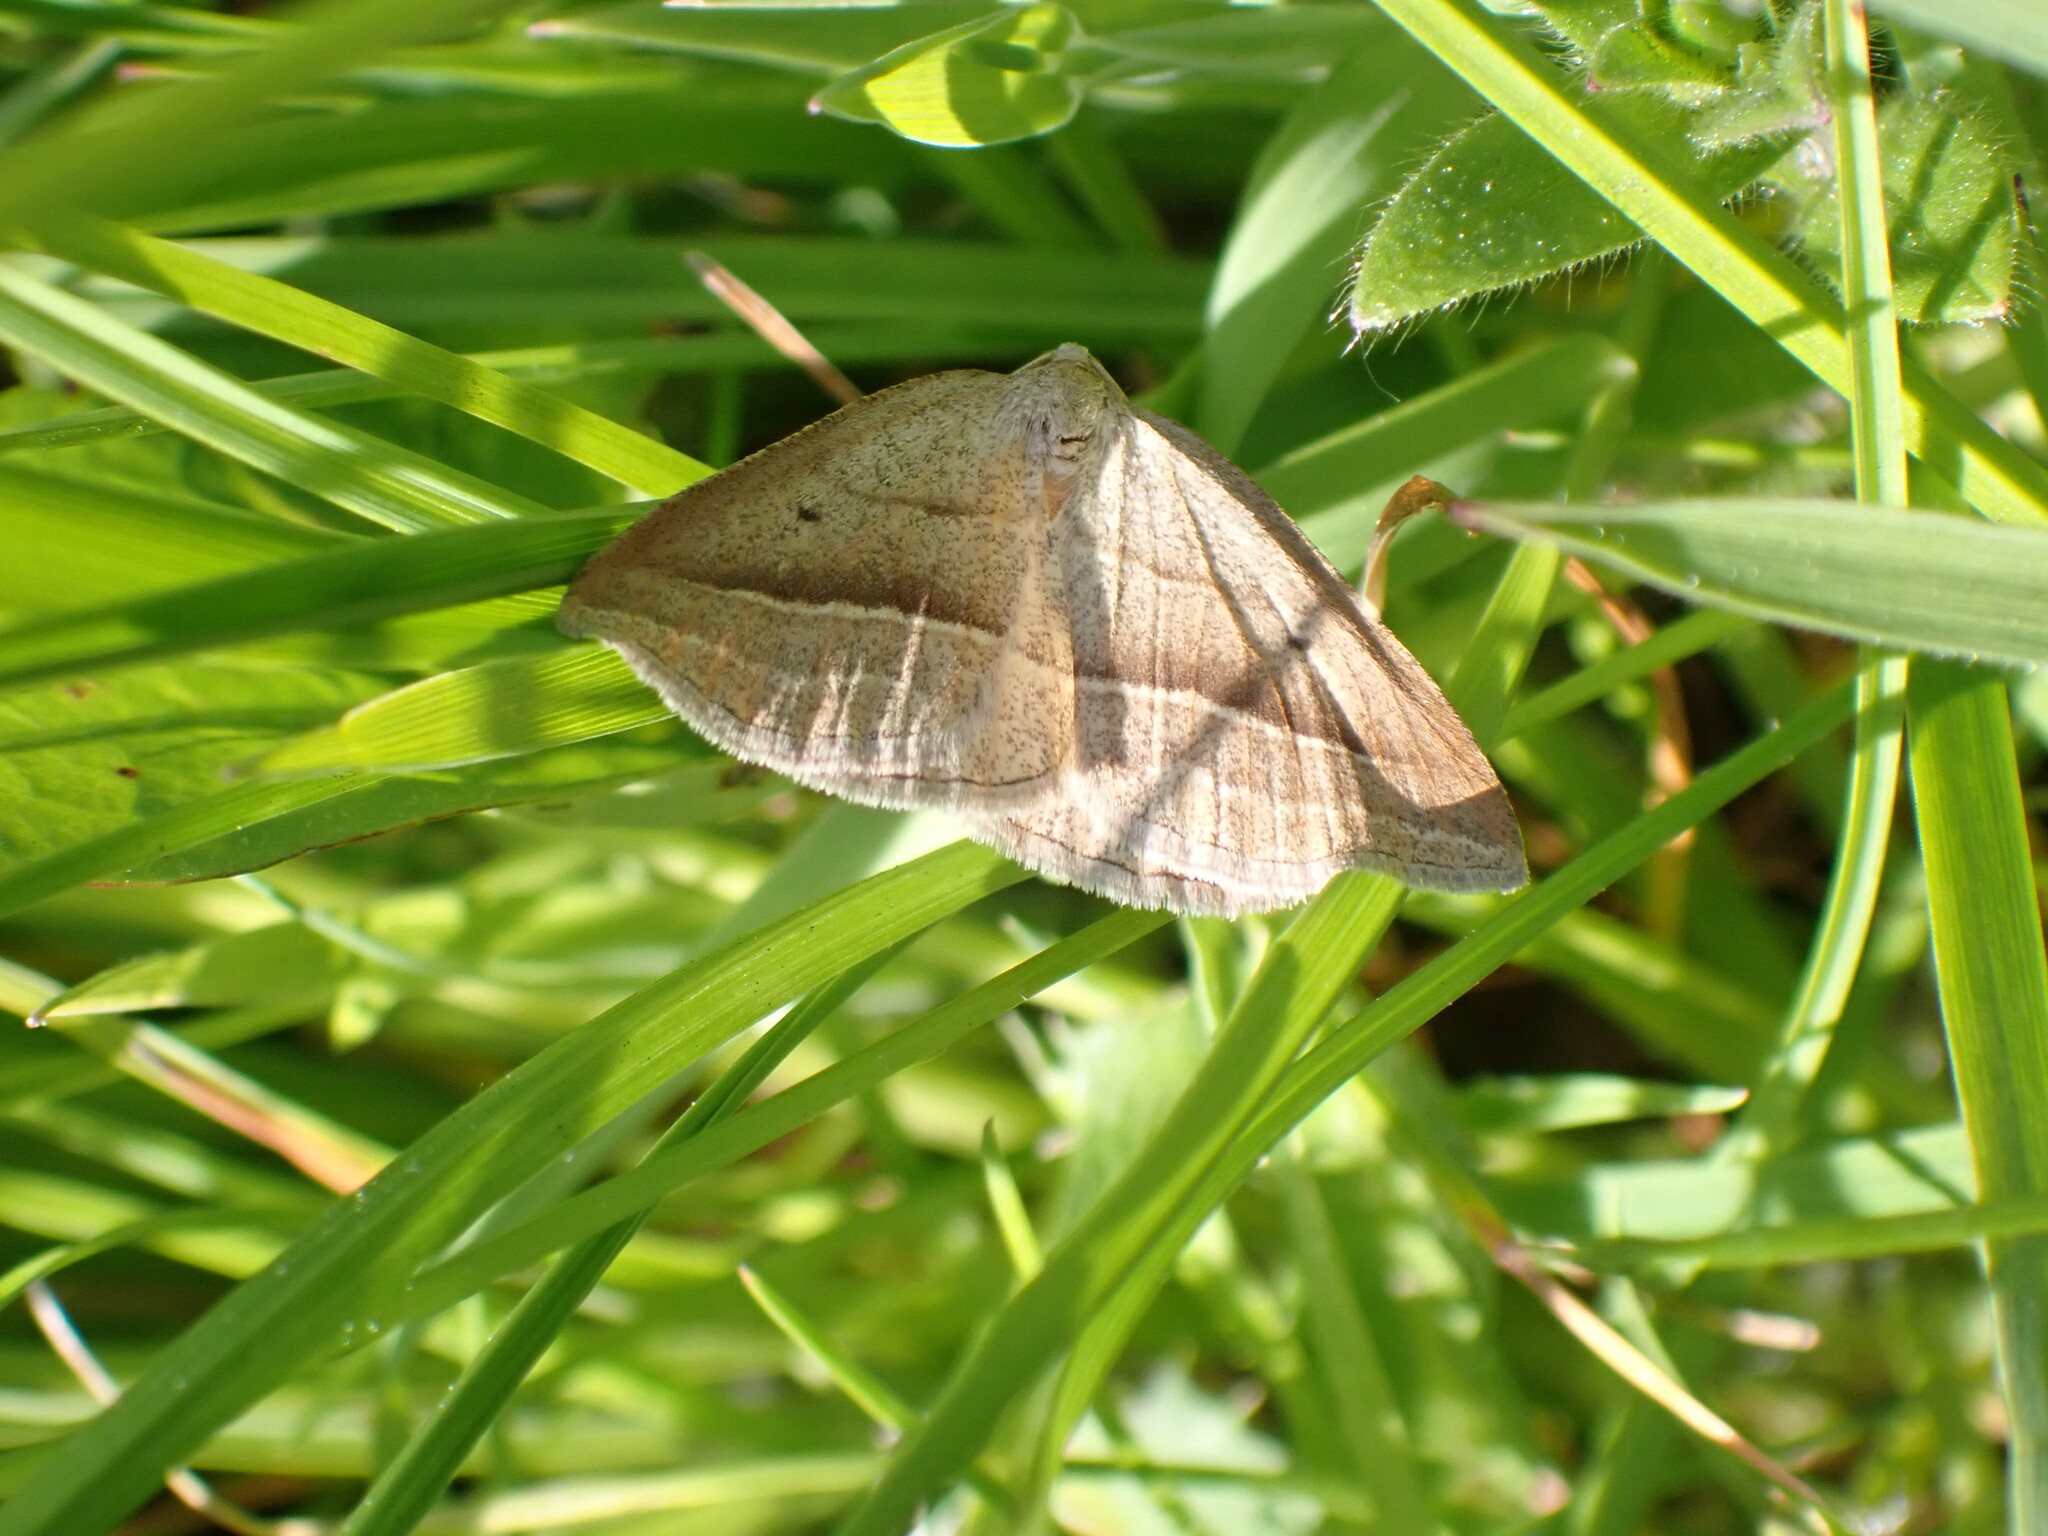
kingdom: Animalia
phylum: Arthropoda
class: Insecta
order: Lepidoptera
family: Pterophoridae
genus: Pterophorus
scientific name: Pterophorus Petrophora chlorosata
